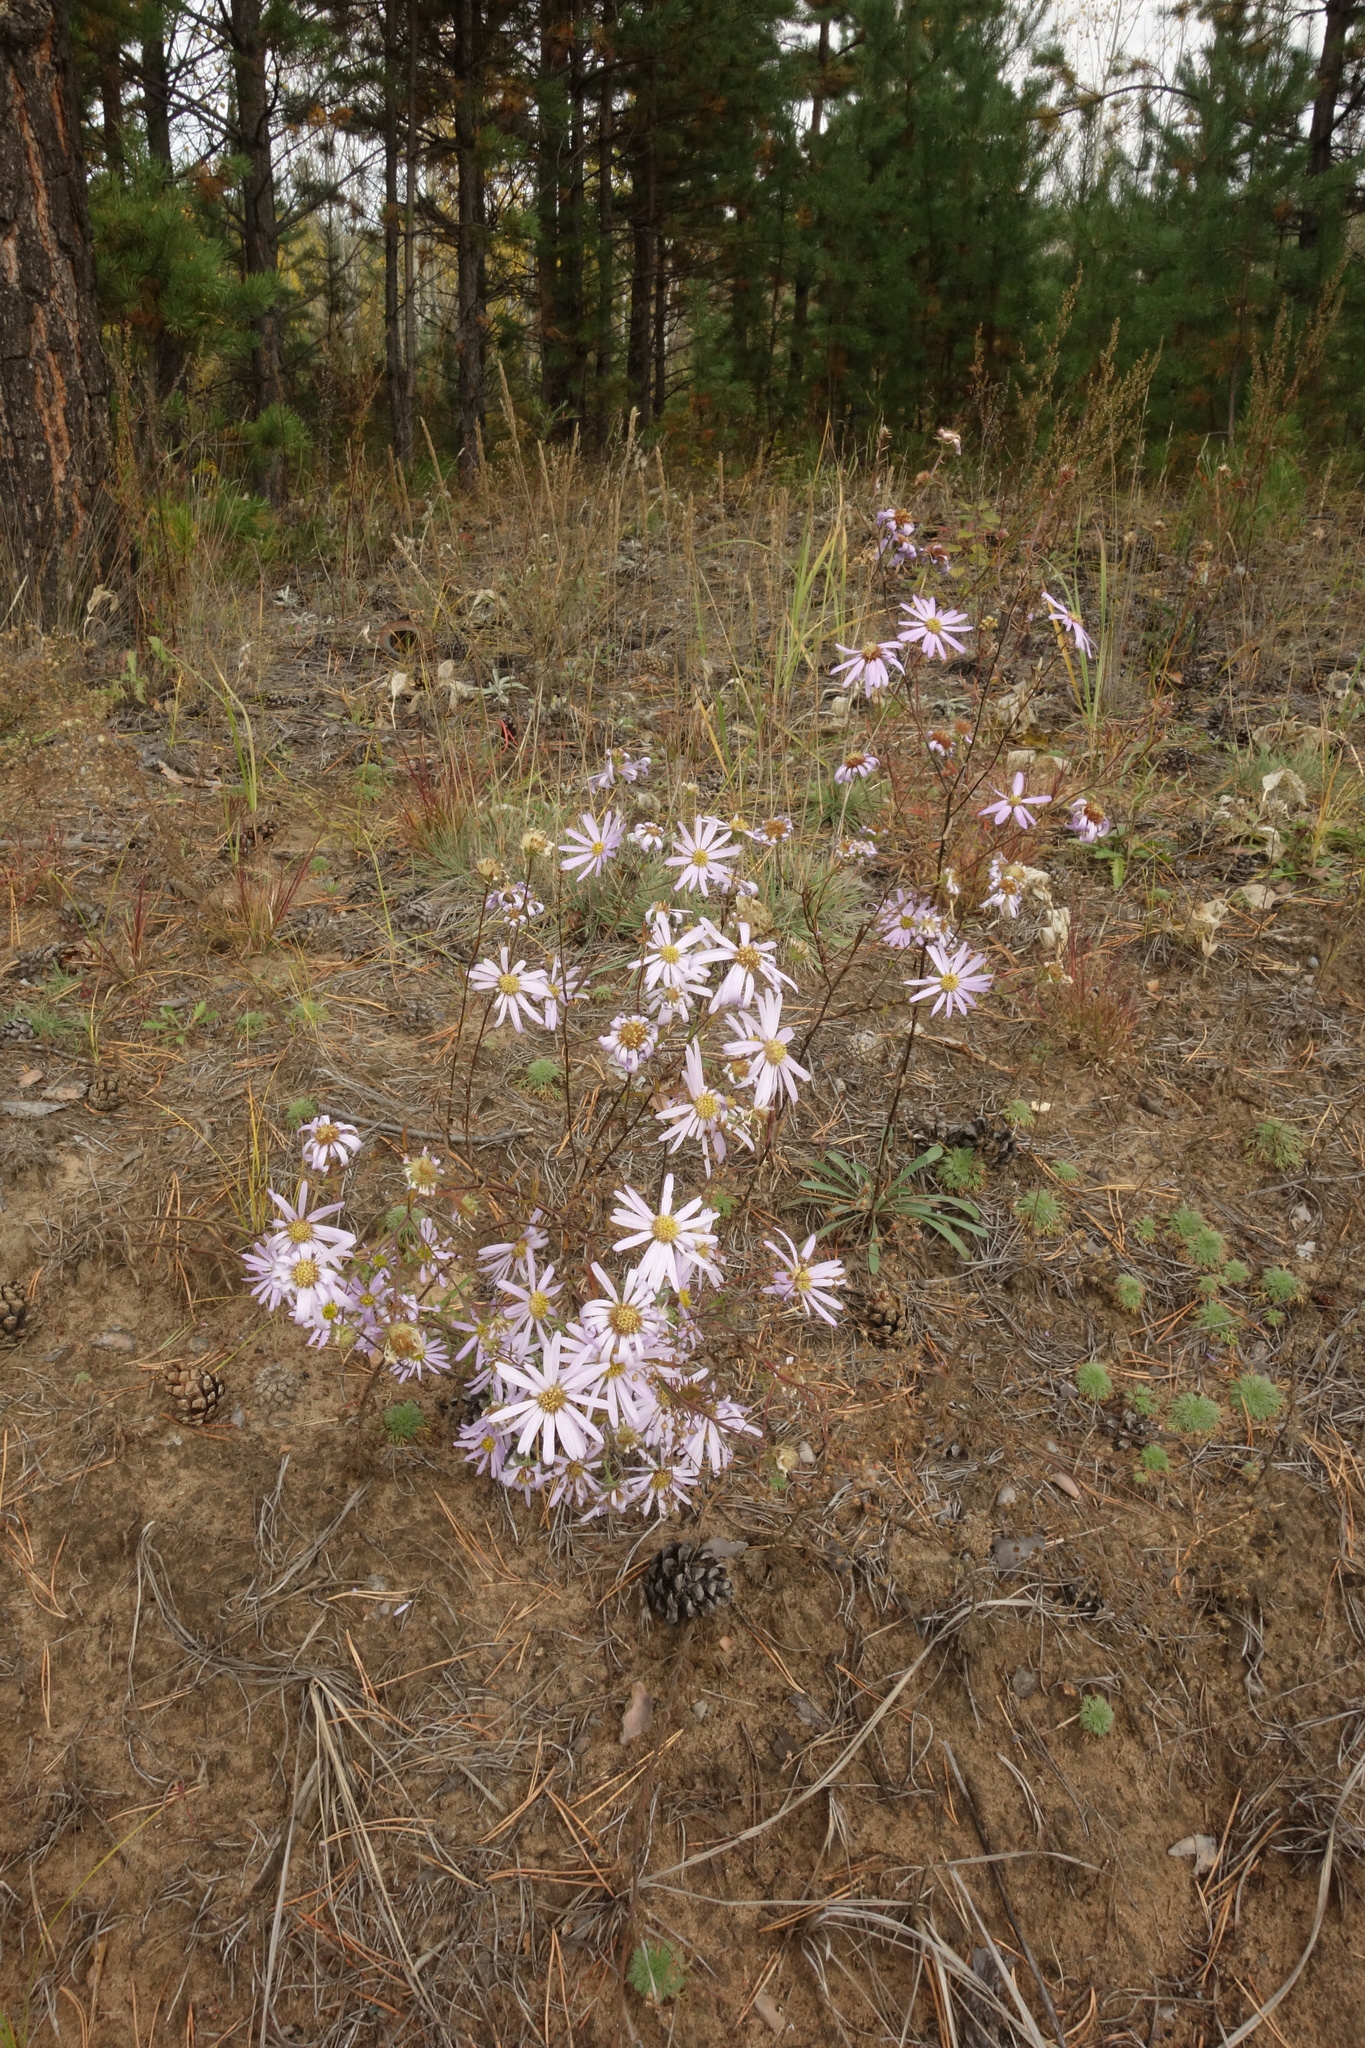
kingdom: Plantae
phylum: Tracheophyta
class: Magnoliopsida
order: Asterales
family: Asteraceae
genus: Aster
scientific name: Aster biennis
